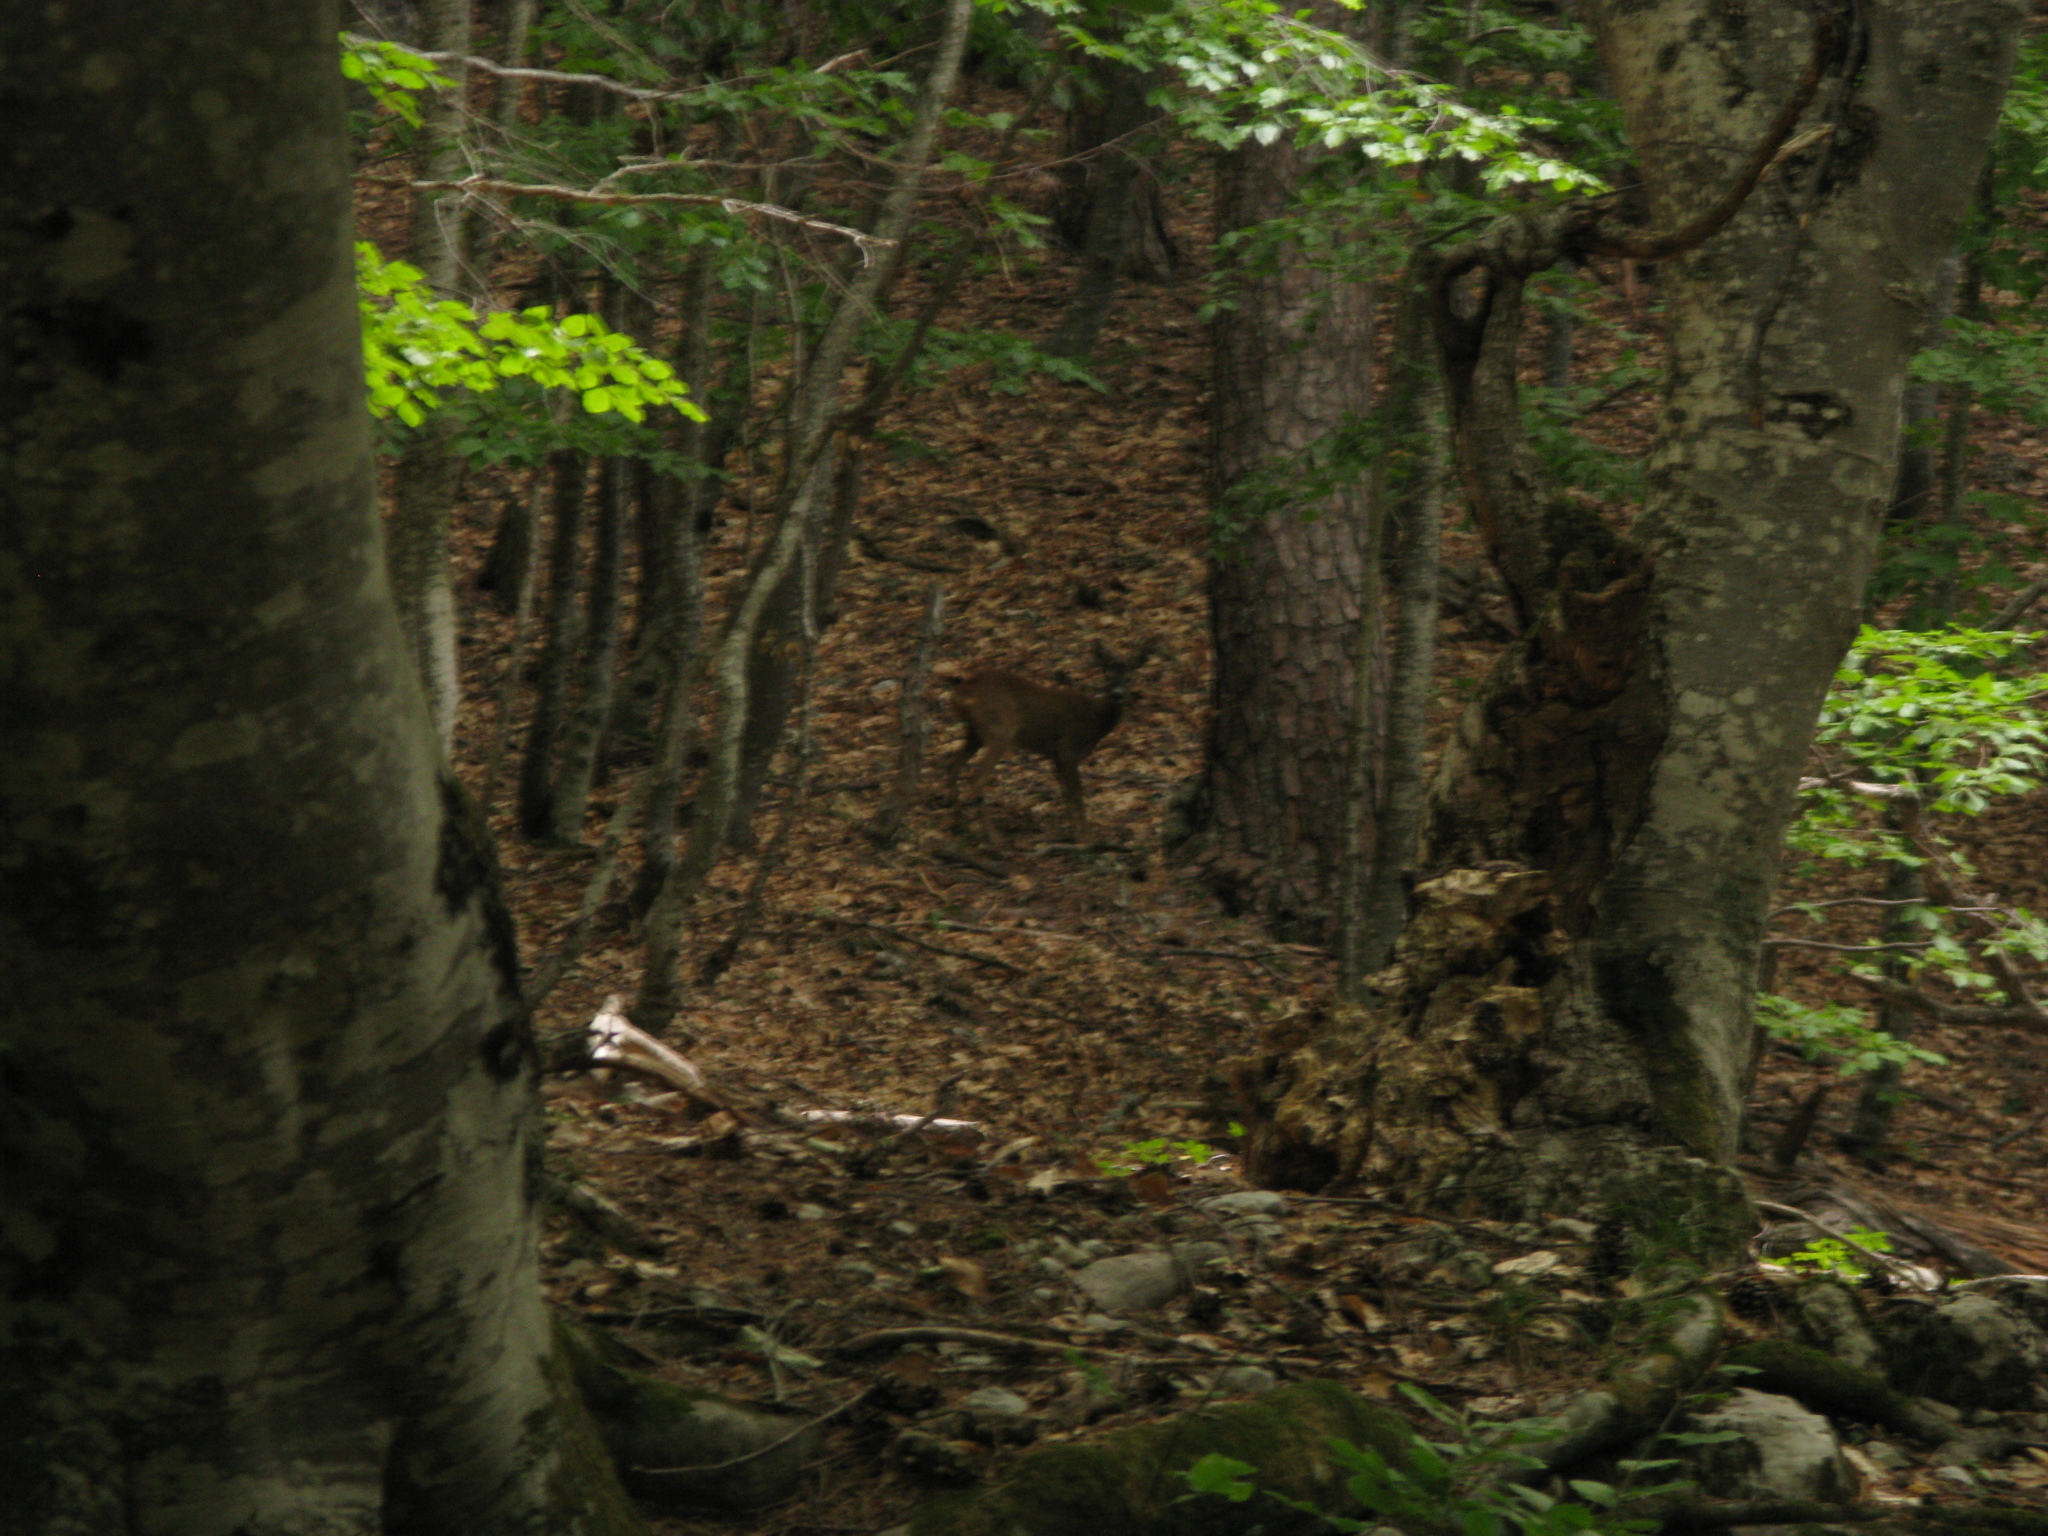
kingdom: Animalia
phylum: Chordata
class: Mammalia
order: Artiodactyla
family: Cervidae
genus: Capreolus
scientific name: Capreolus capreolus
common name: Western roe deer
